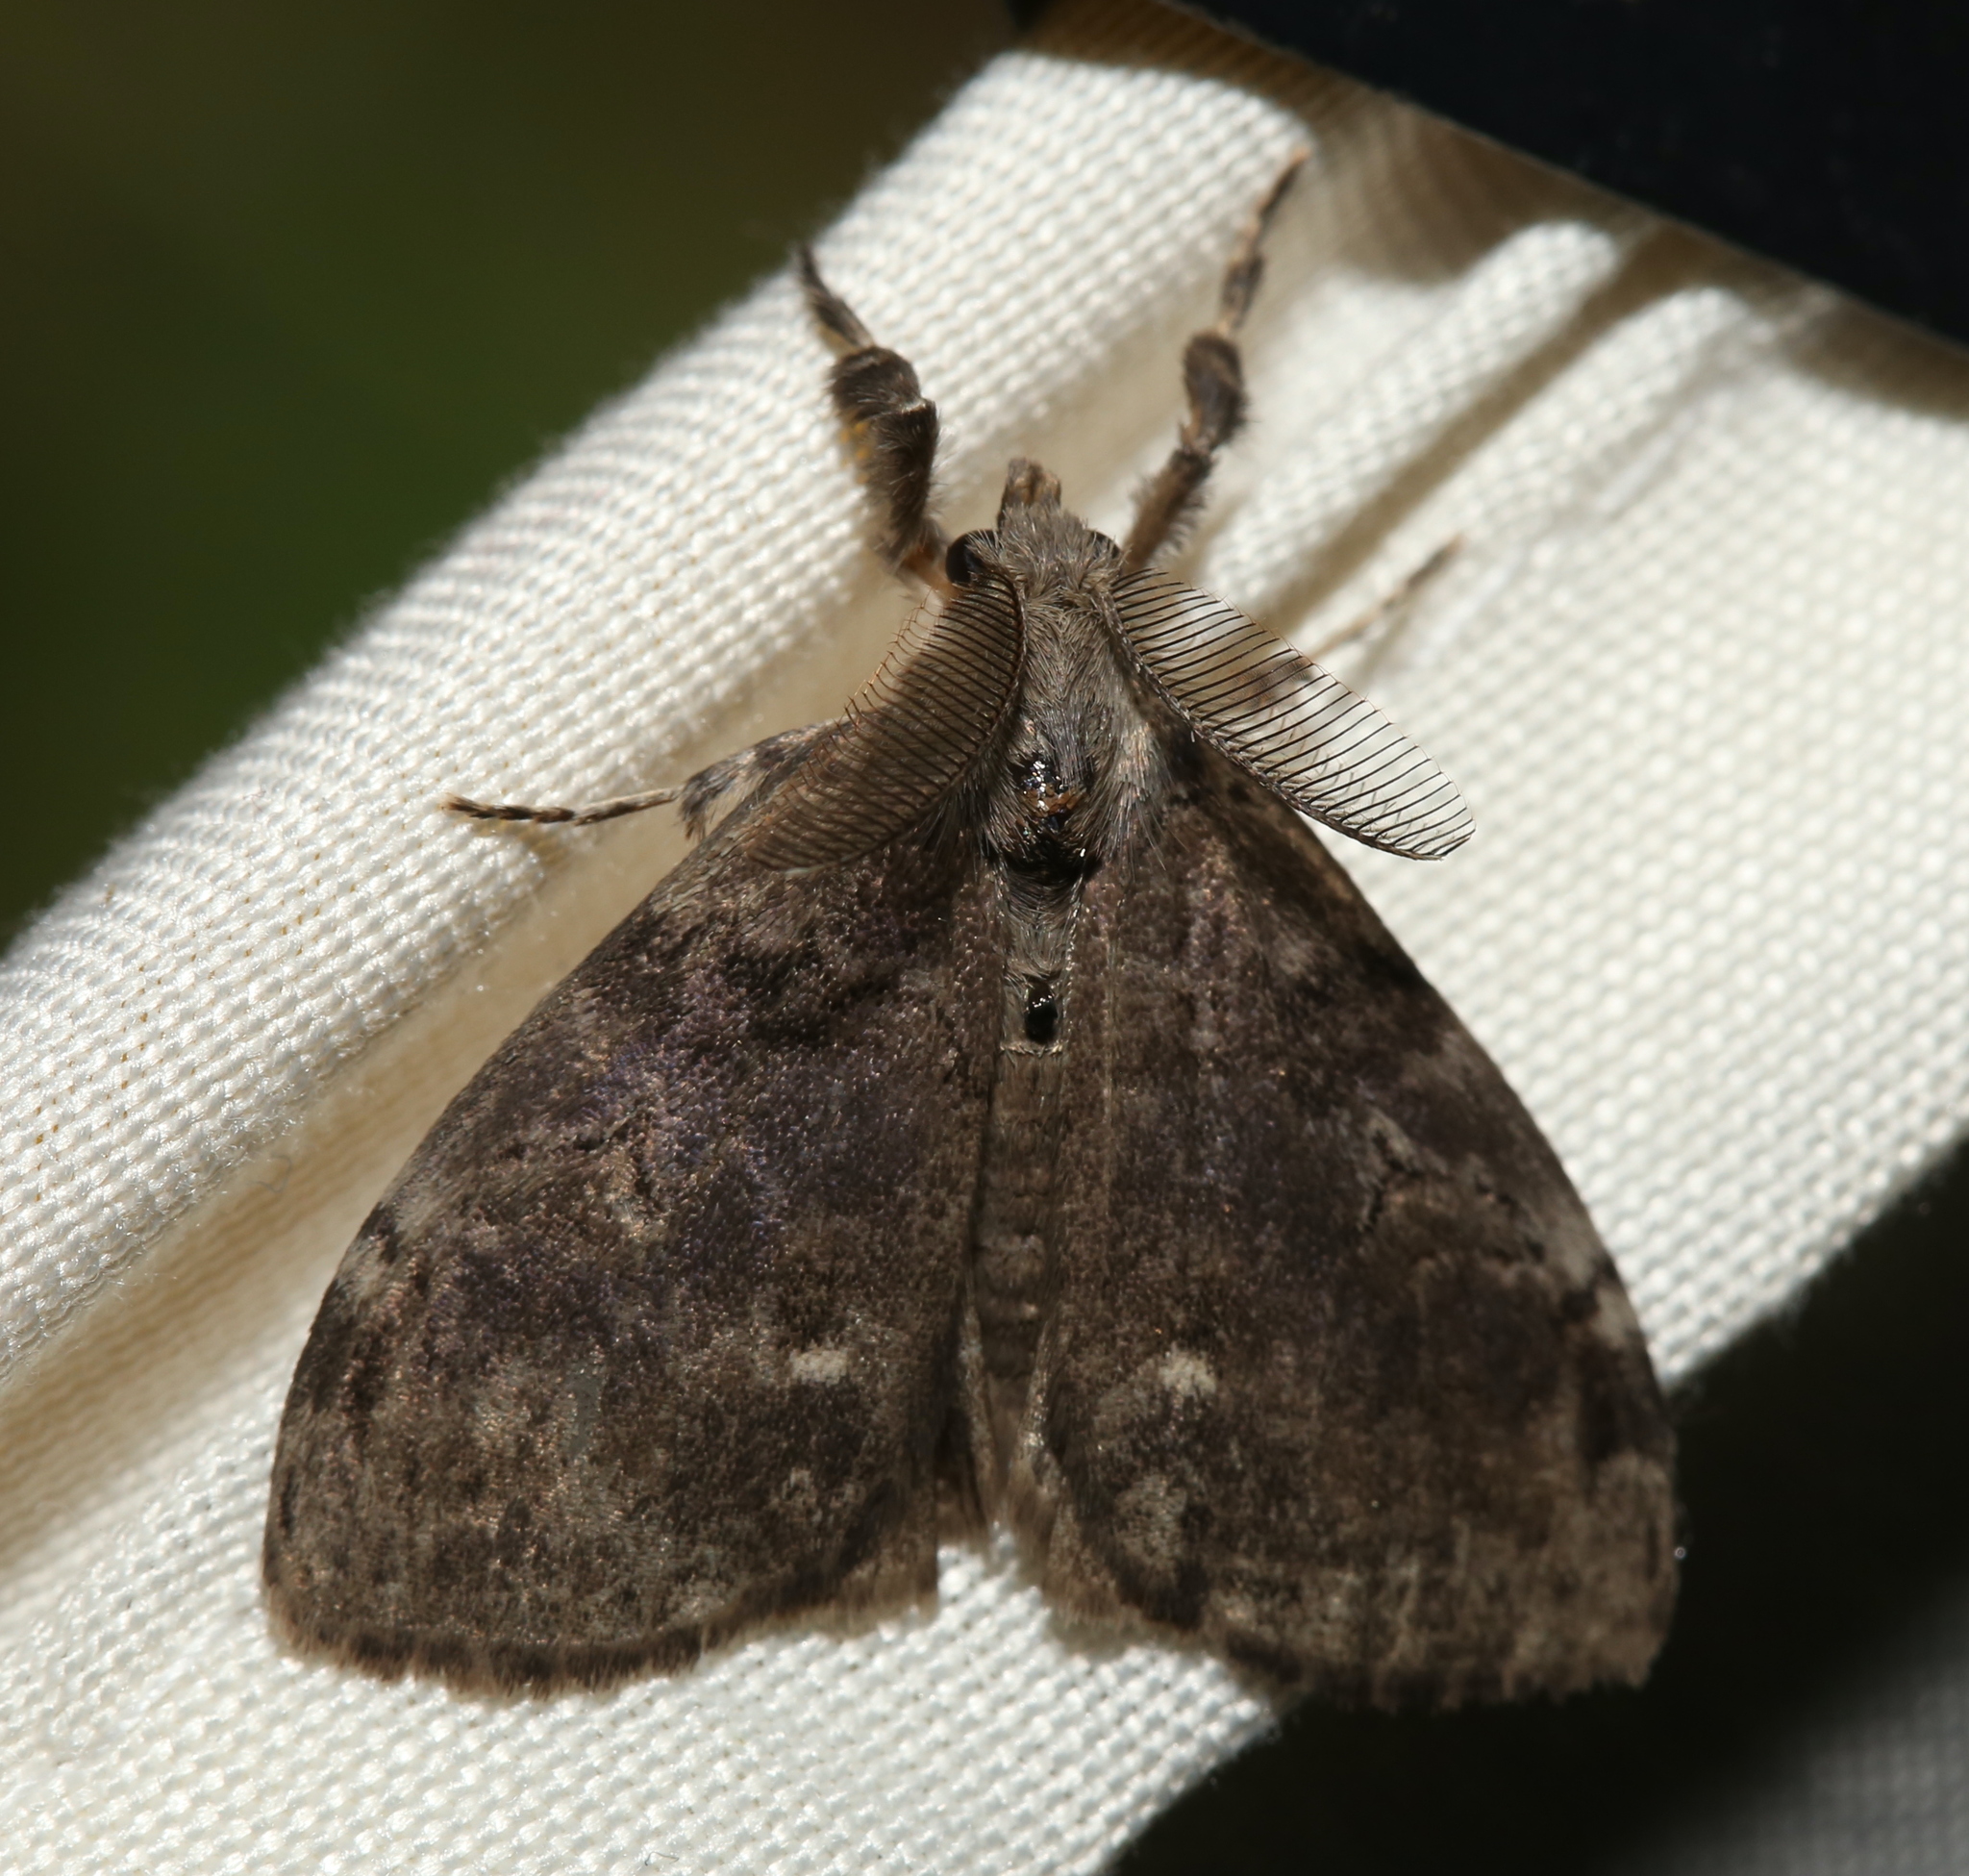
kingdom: Animalia
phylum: Arthropoda
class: Insecta
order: Lepidoptera
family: Erebidae
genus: Orgyia
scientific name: Orgyia leucostigma
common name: White-marked tussock moth
